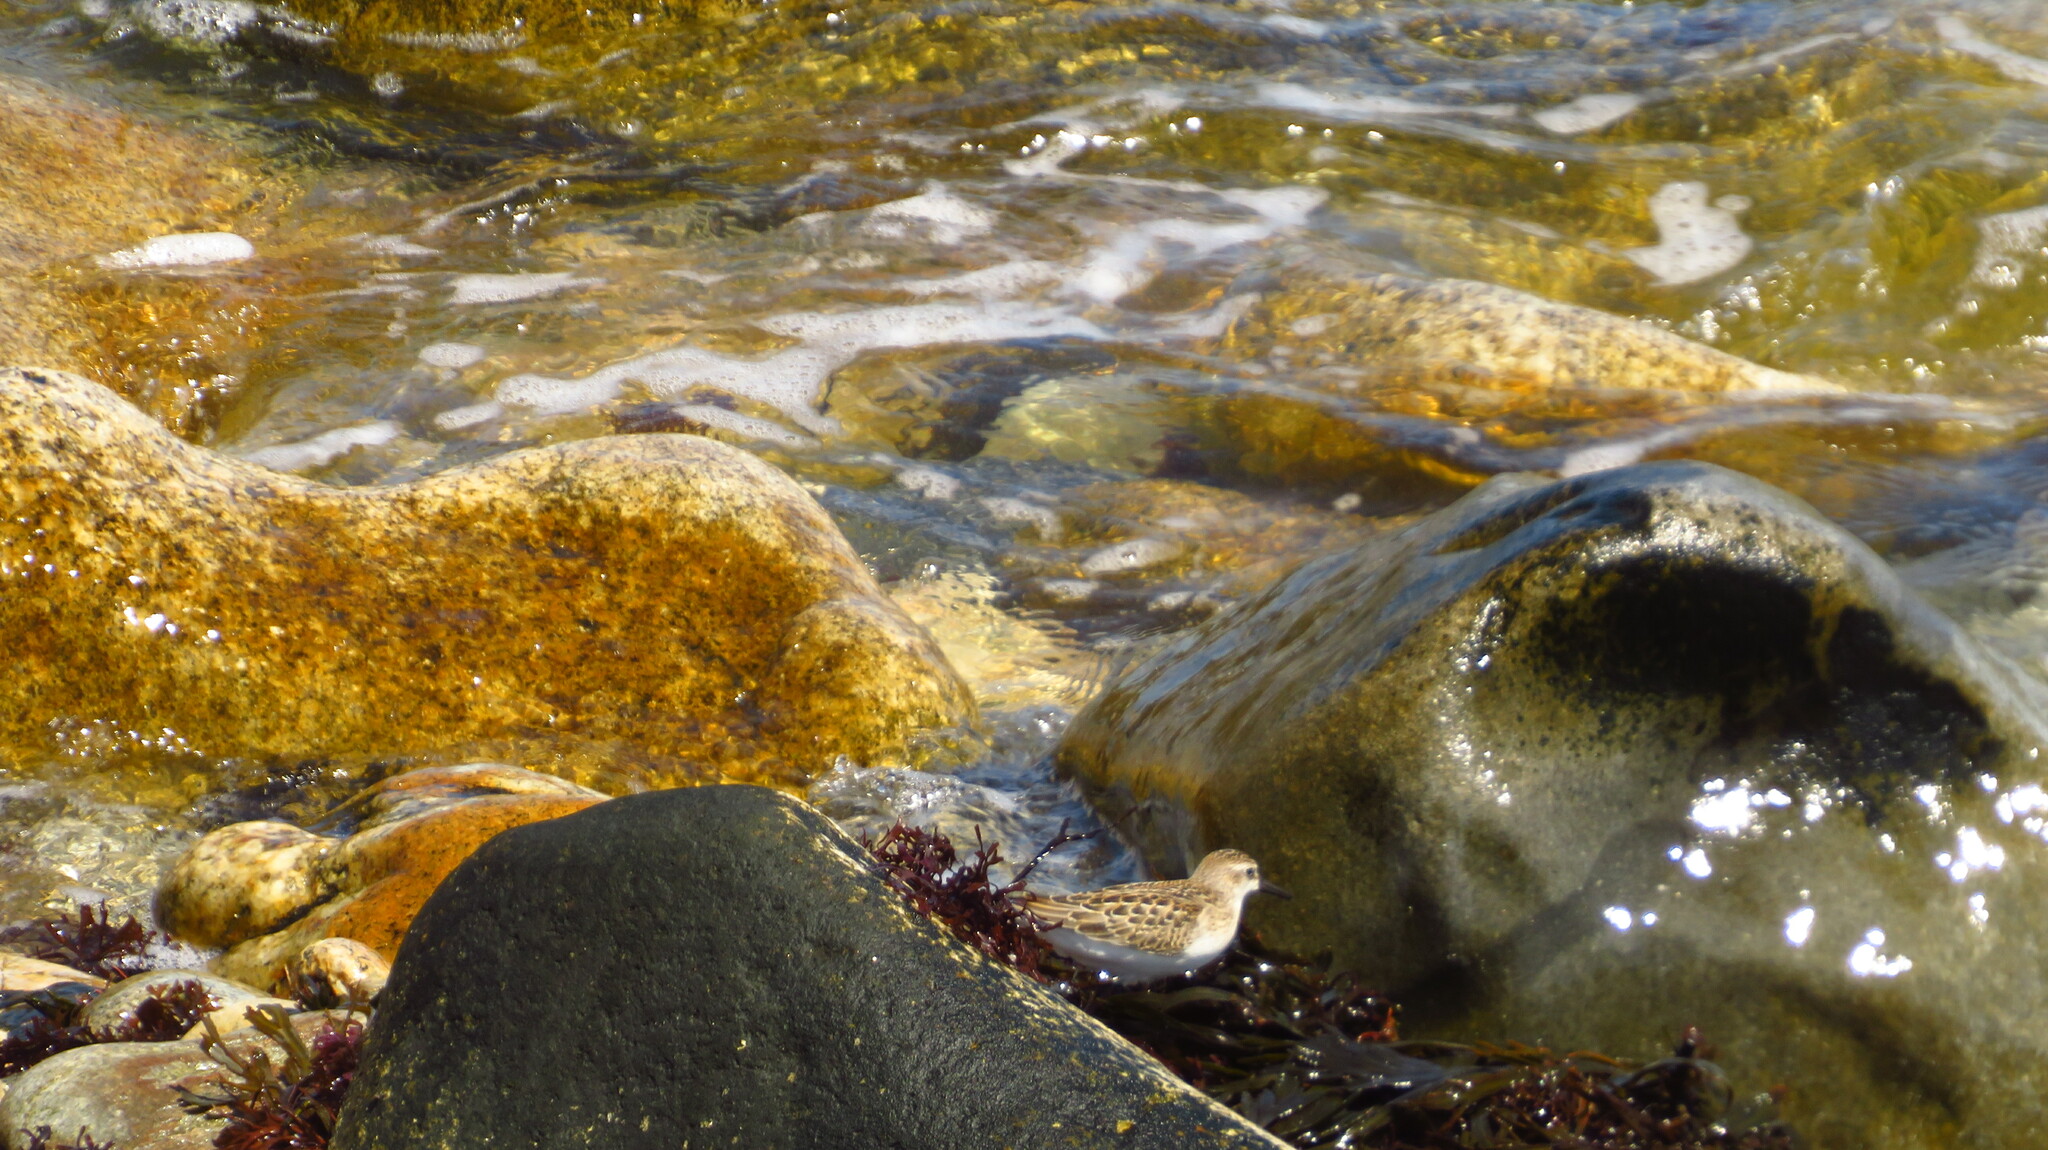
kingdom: Animalia
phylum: Chordata
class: Aves
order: Charadriiformes
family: Scolopacidae
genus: Calidris
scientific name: Calidris pusilla
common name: Semipalmated sandpiper
